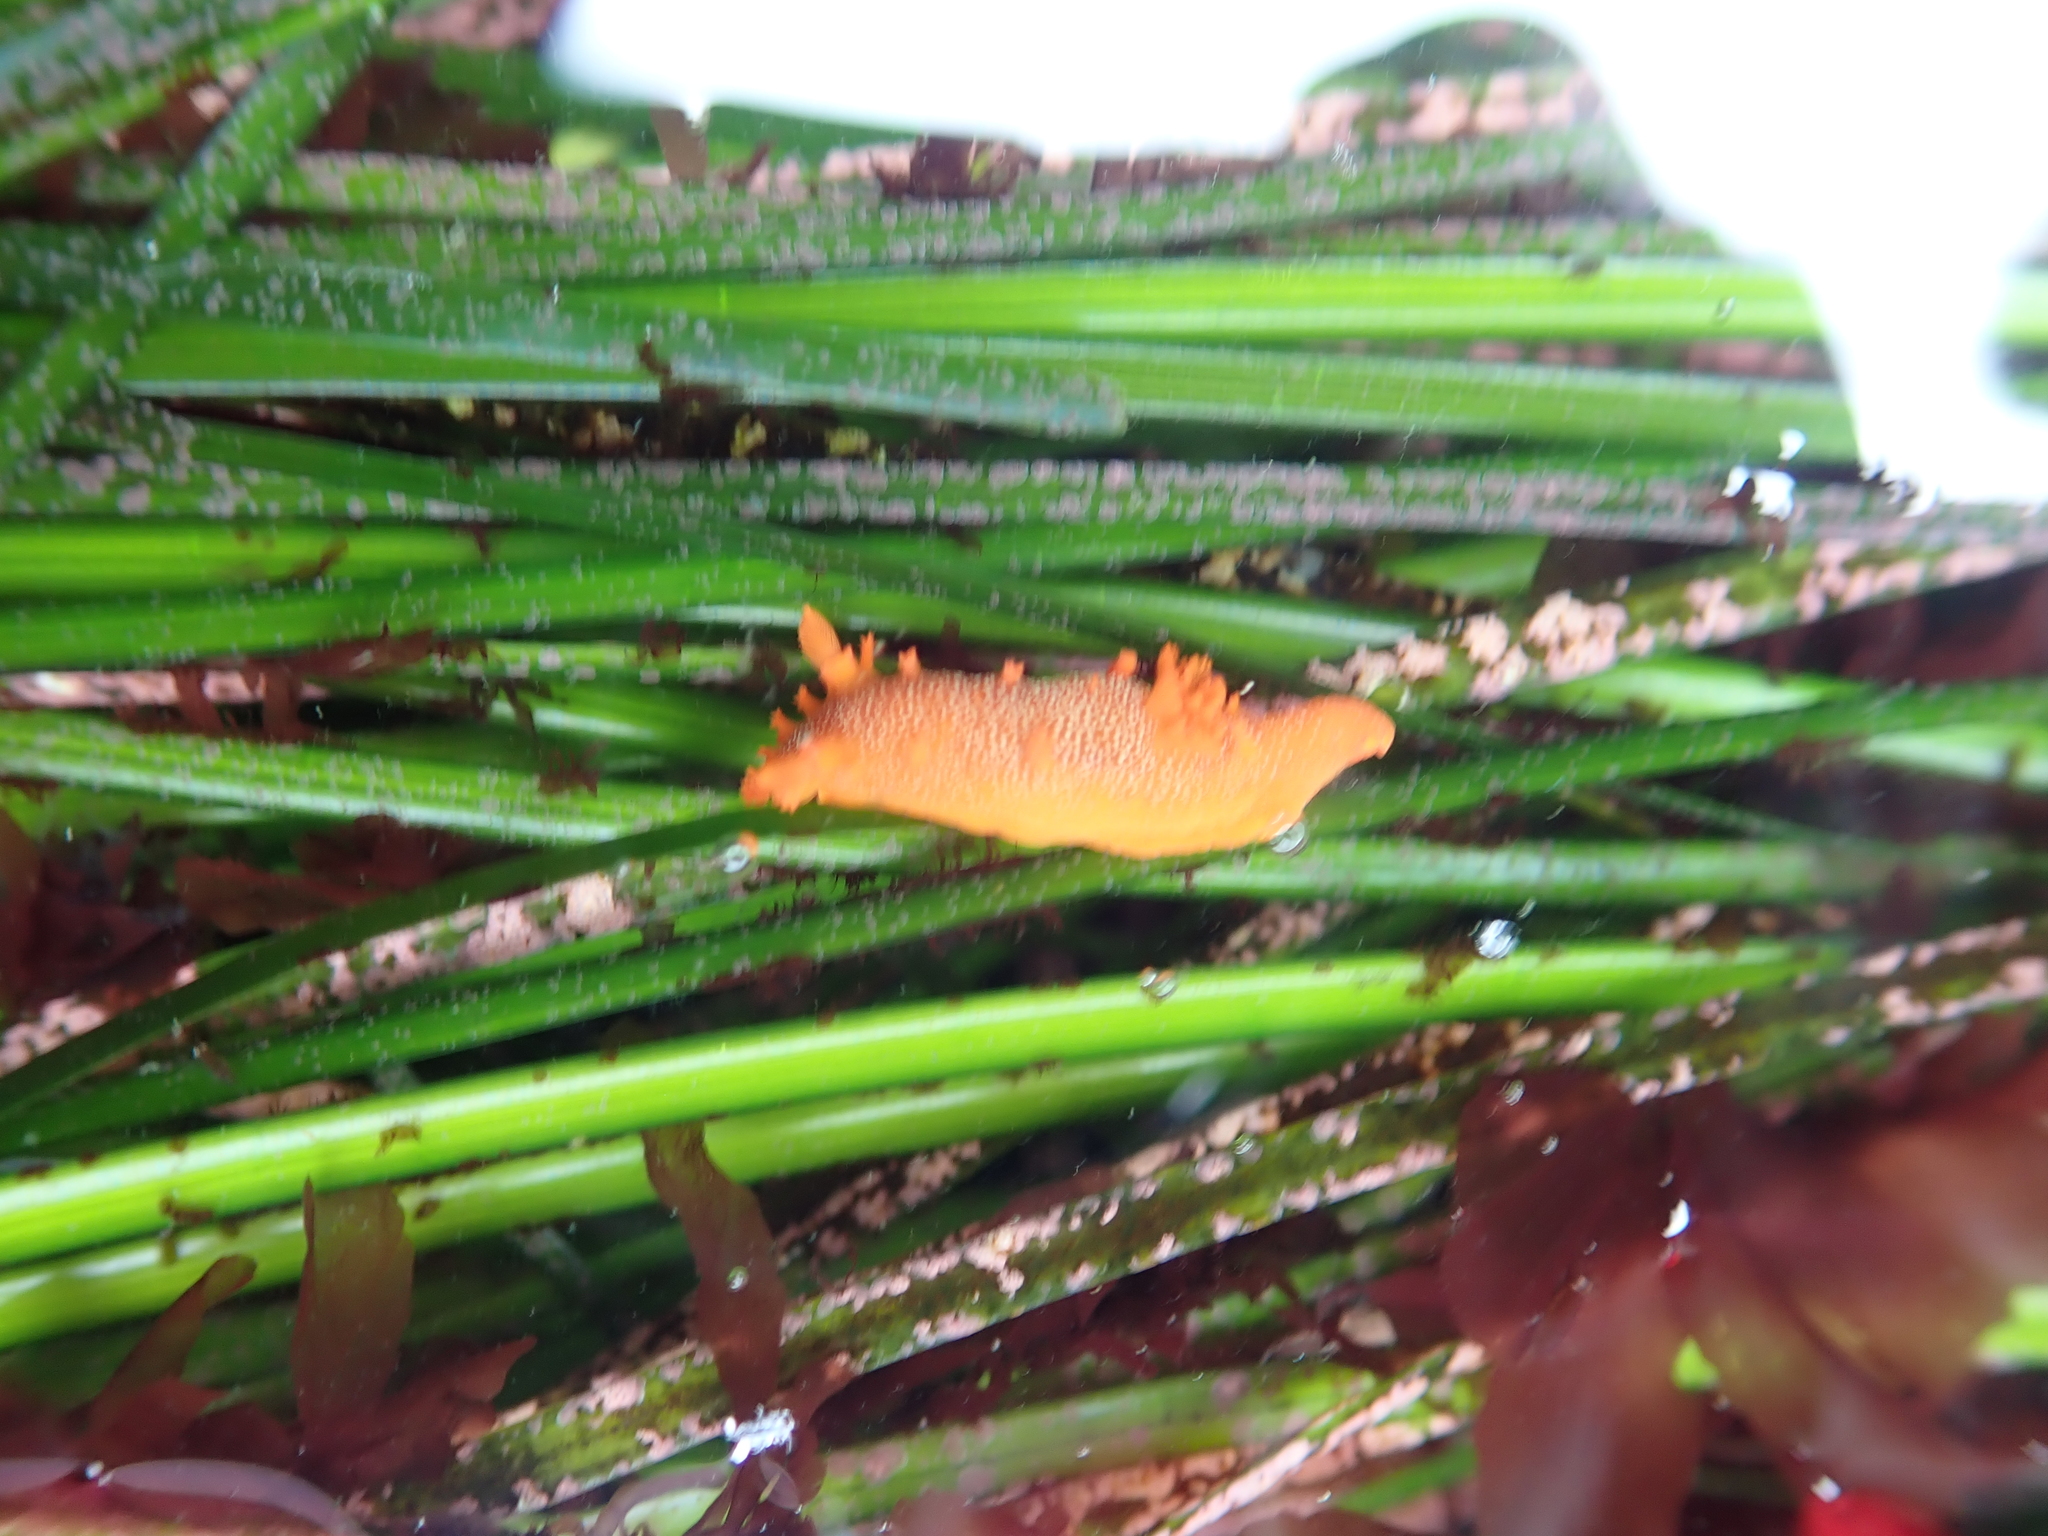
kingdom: Animalia
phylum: Mollusca
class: Gastropoda
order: Nudibranchia
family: Polyceridae
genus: Triopha
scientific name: Triopha maculata
